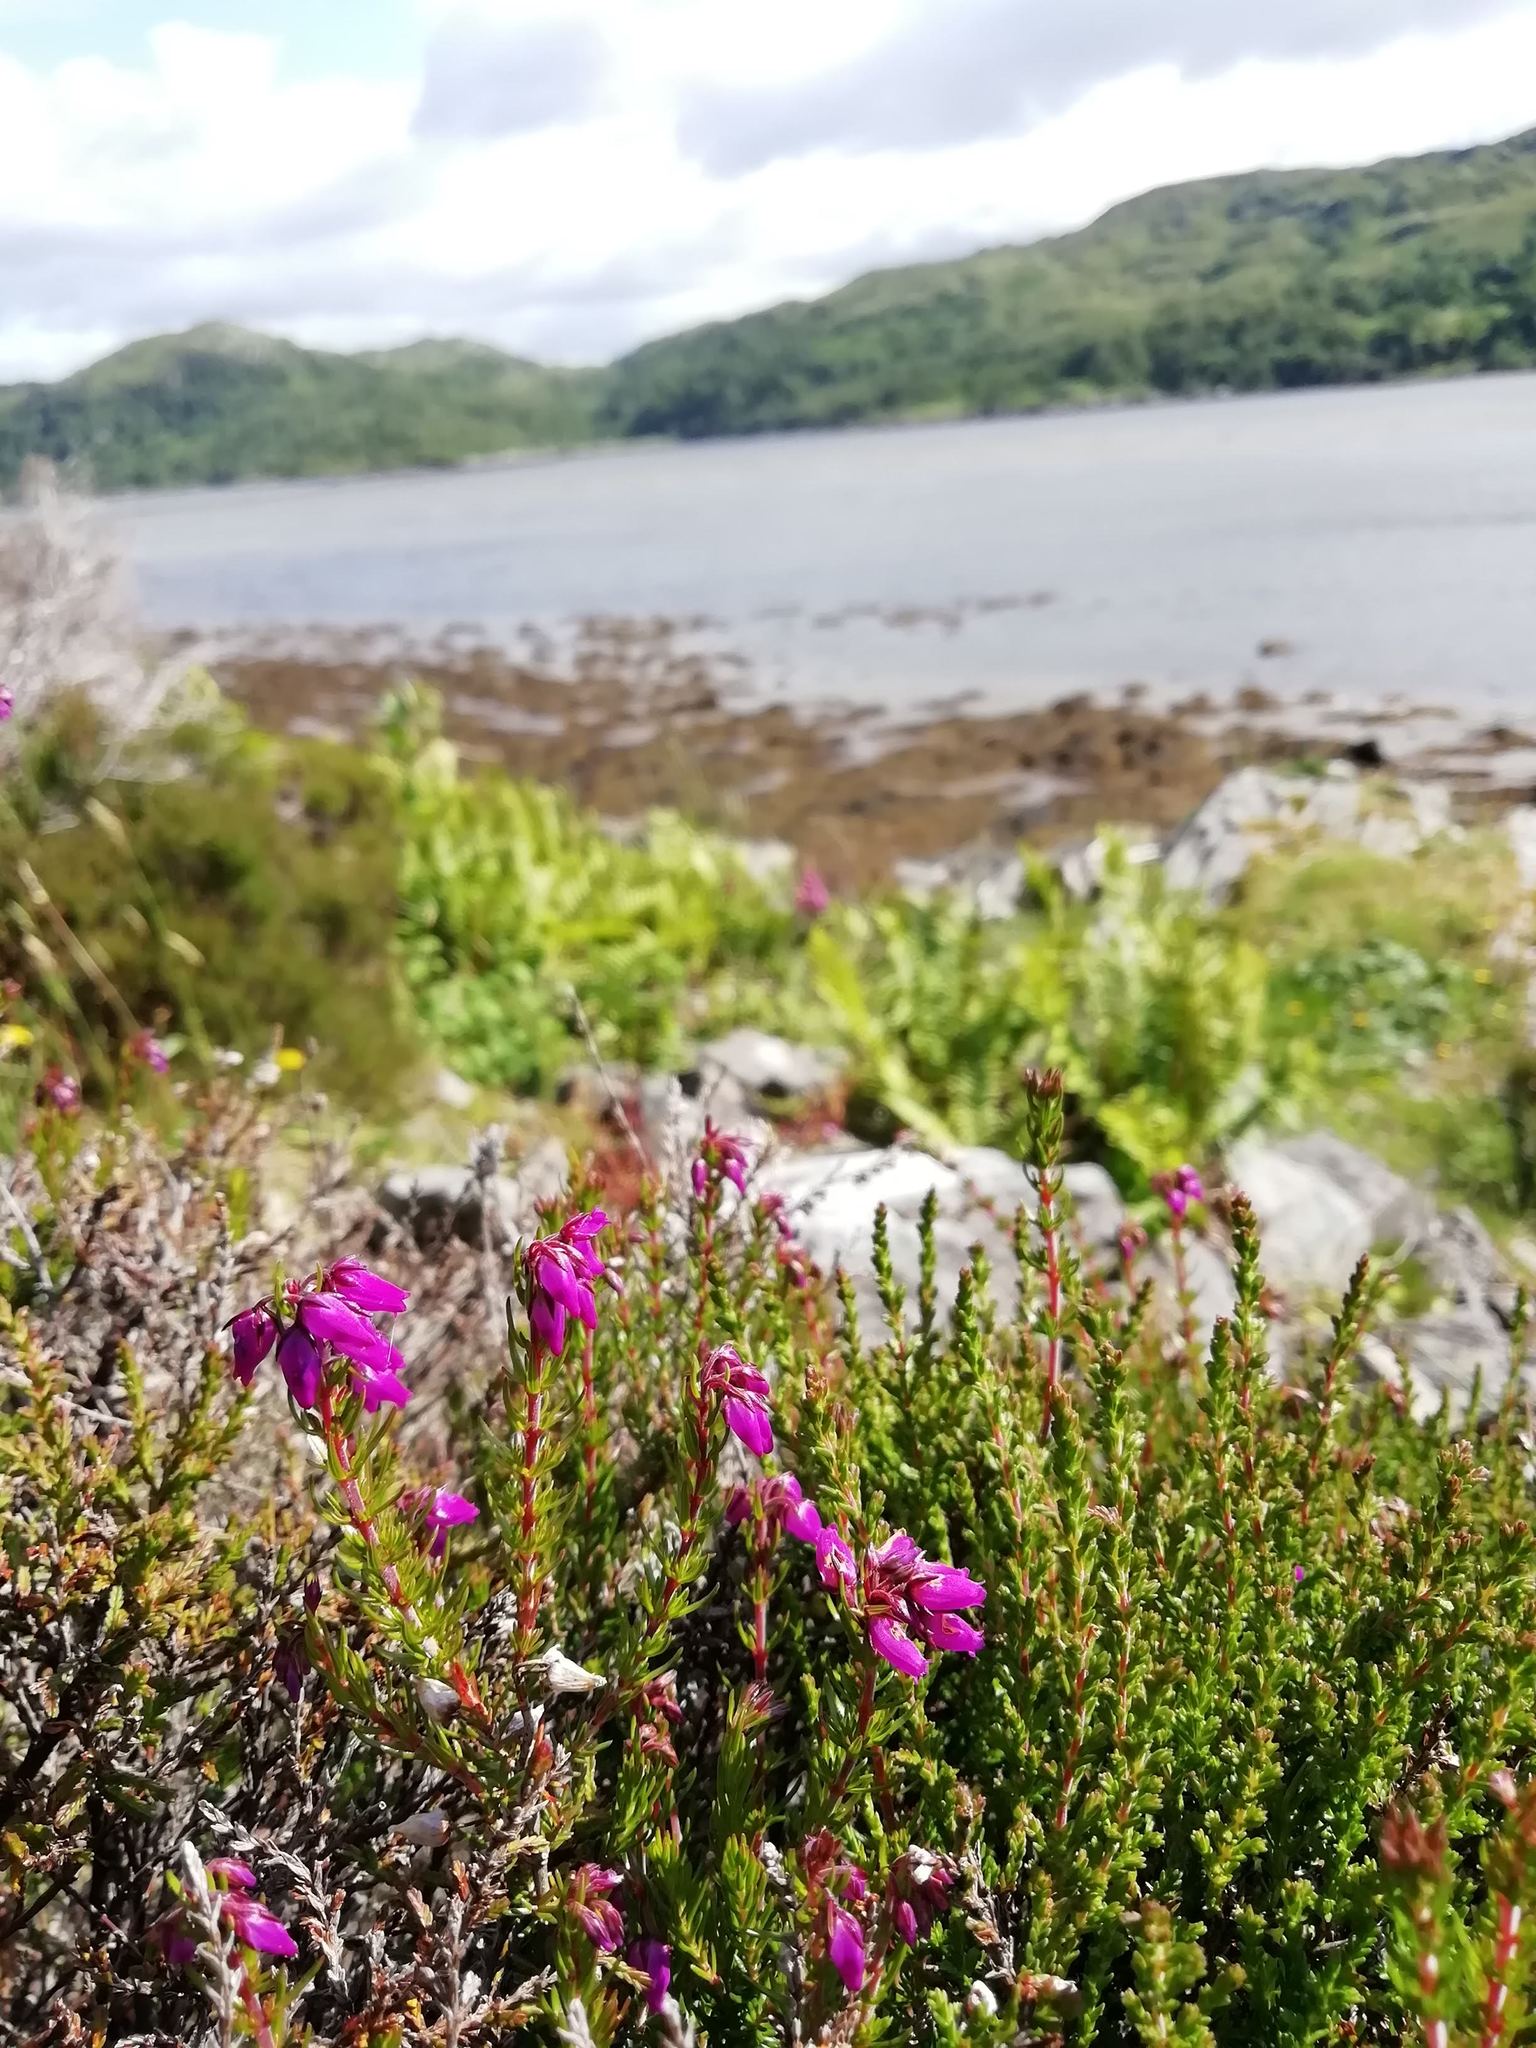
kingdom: Plantae
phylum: Tracheophyta
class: Magnoliopsida
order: Ericales
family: Ericaceae
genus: Erica
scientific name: Erica cinerea
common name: Bell heather
